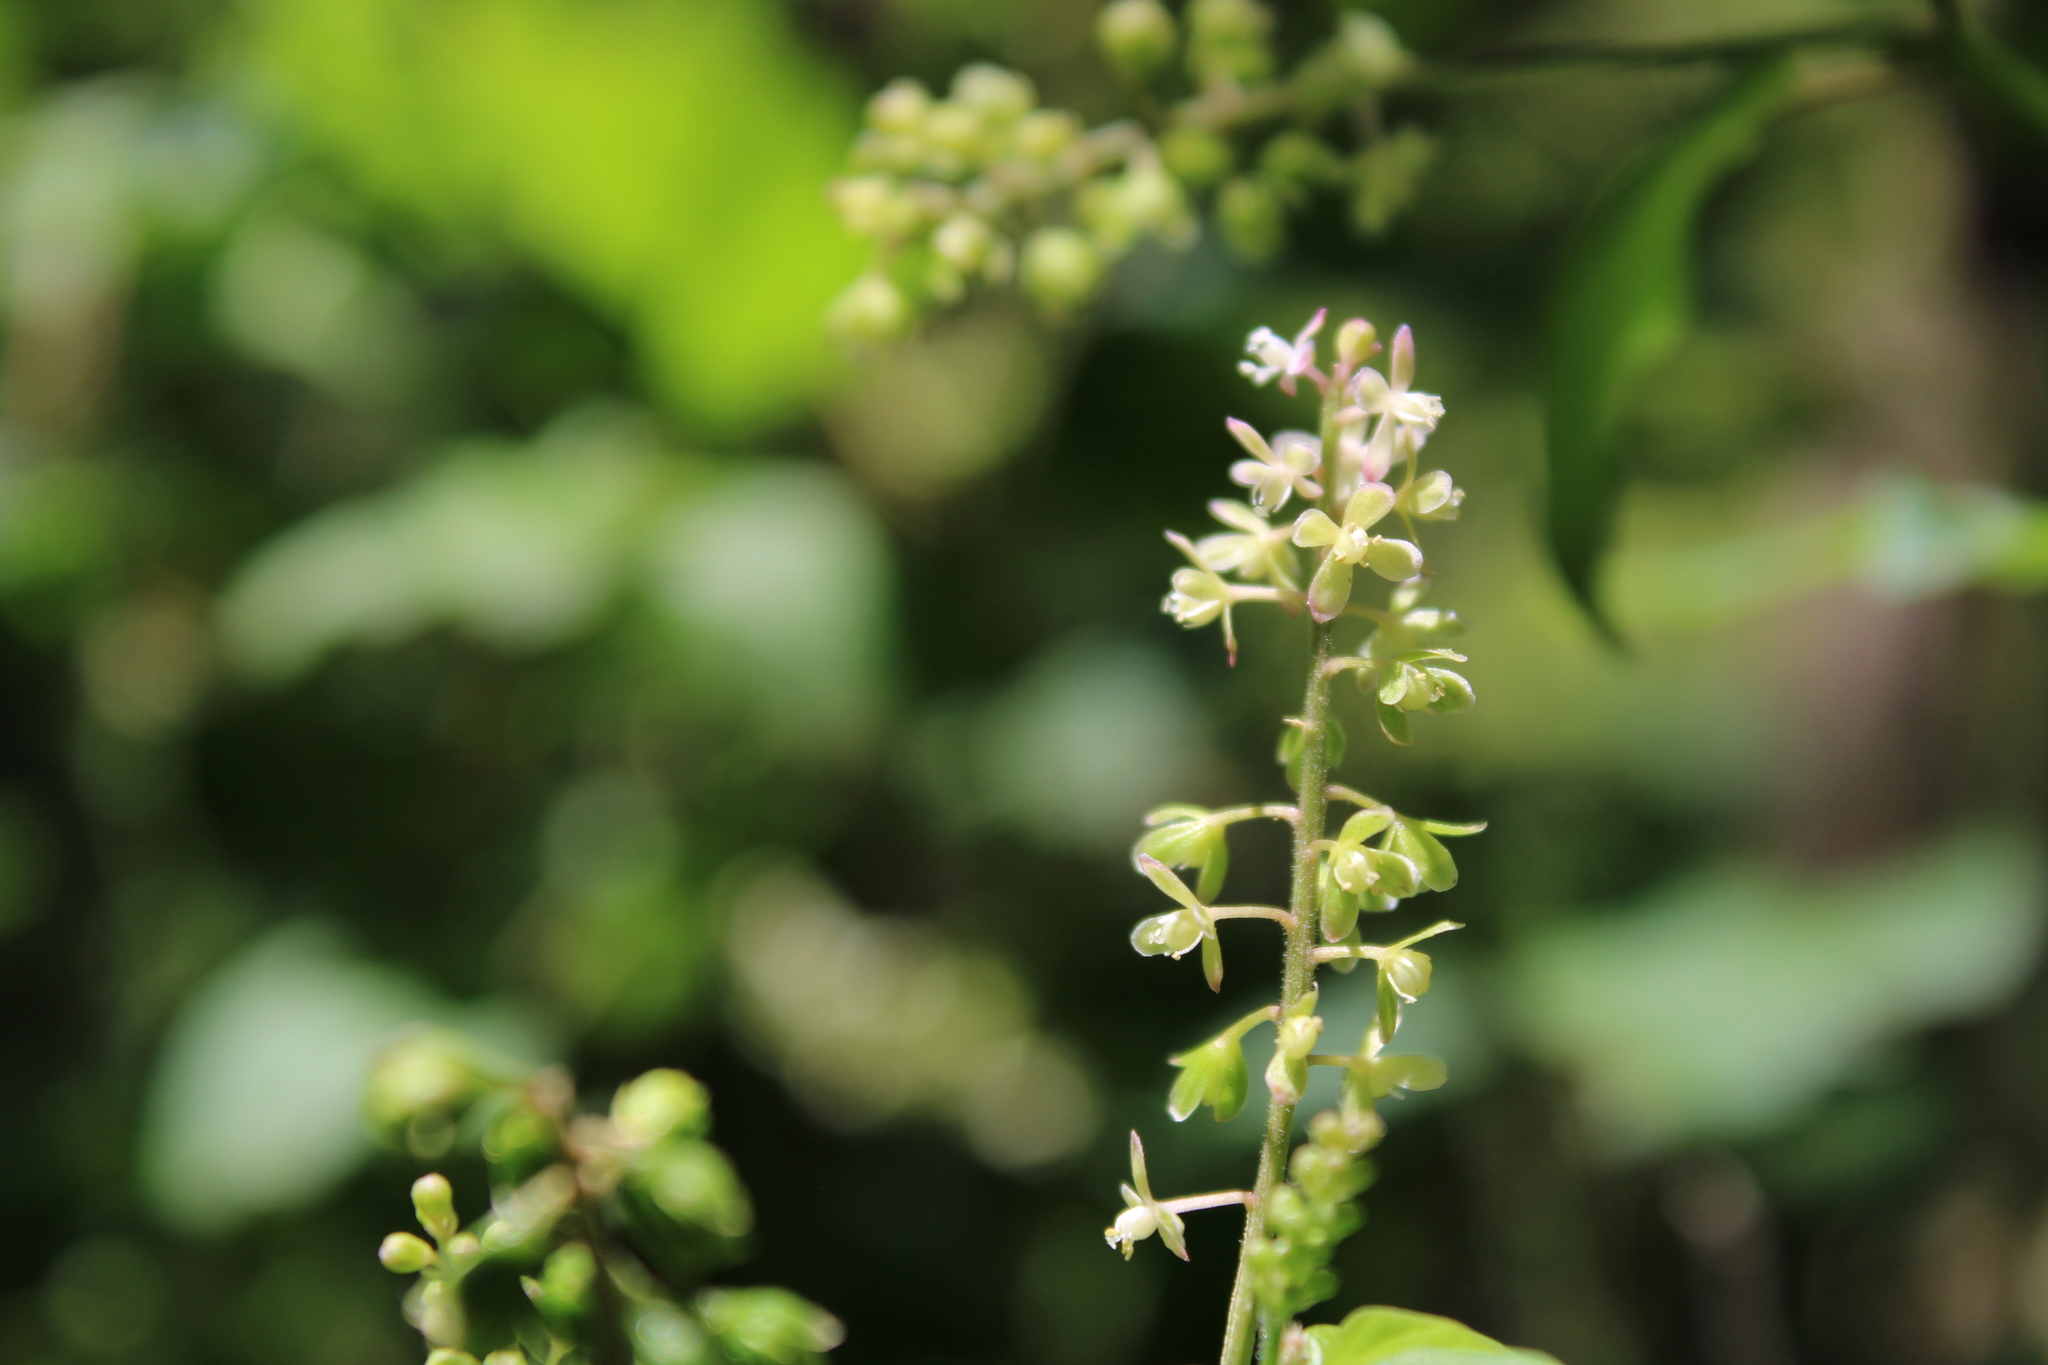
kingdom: Plantae
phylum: Tracheophyta
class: Magnoliopsida
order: Caryophyllales
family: Phytolaccaceae
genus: Rivina
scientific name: Rivina humilis
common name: Rougeplant
